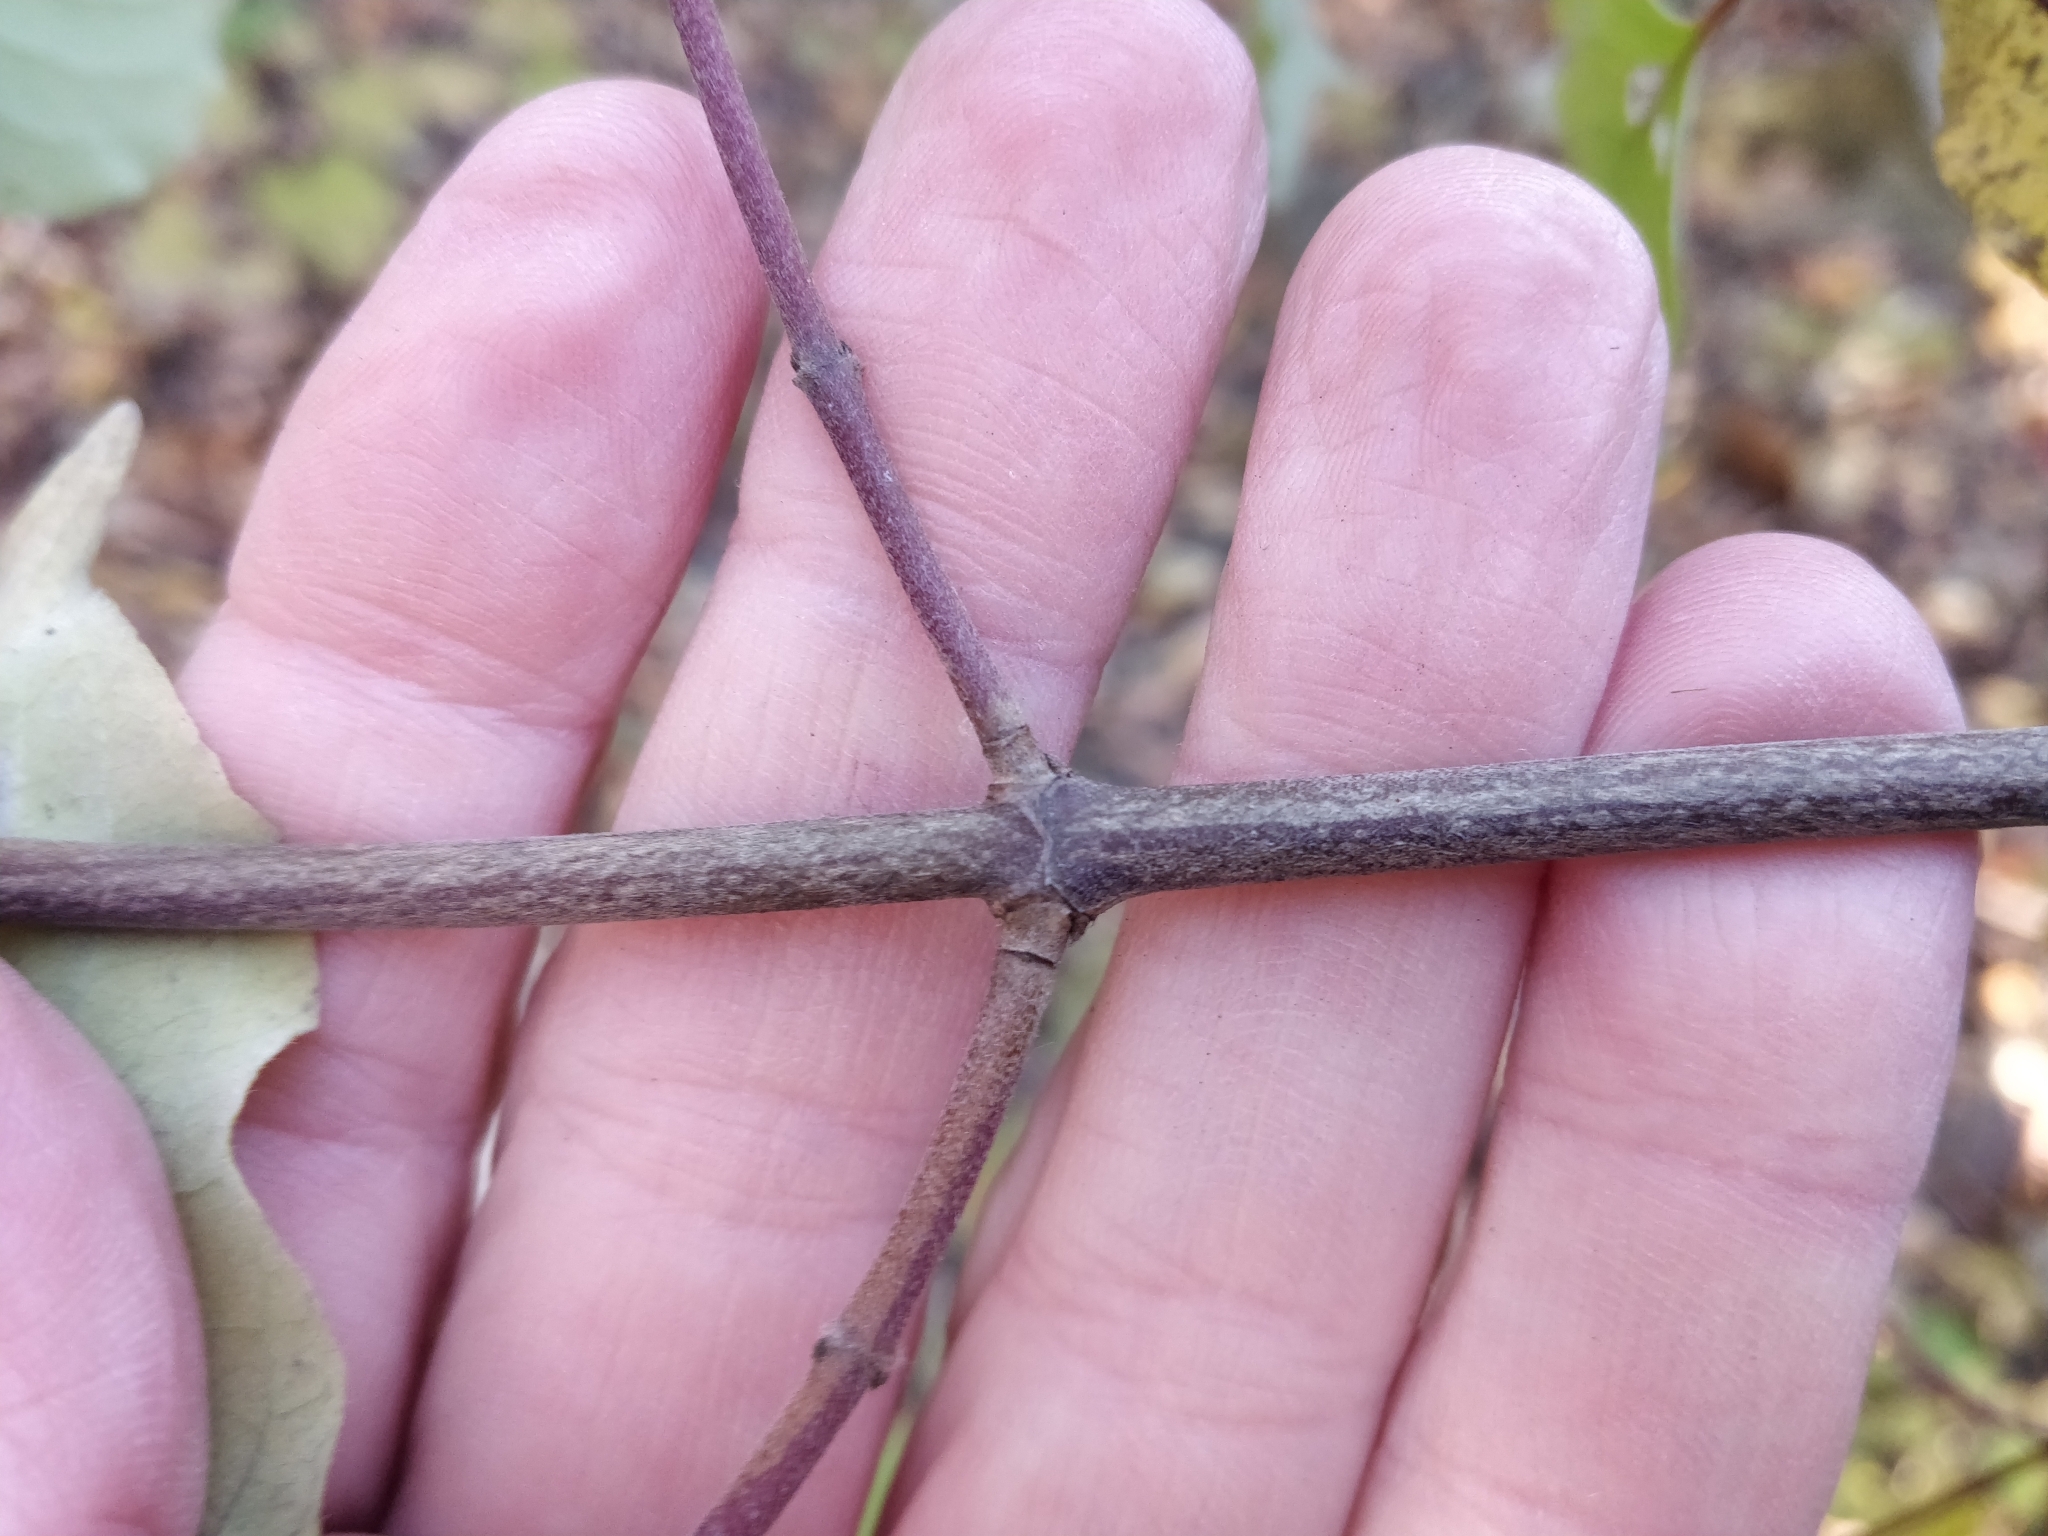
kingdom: Plantae
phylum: Tracheophyta
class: Magnoliopsida
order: Cornales
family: Cornaceae
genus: Cornus
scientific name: Cornus drummondii
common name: Rough-leaf dogwood
